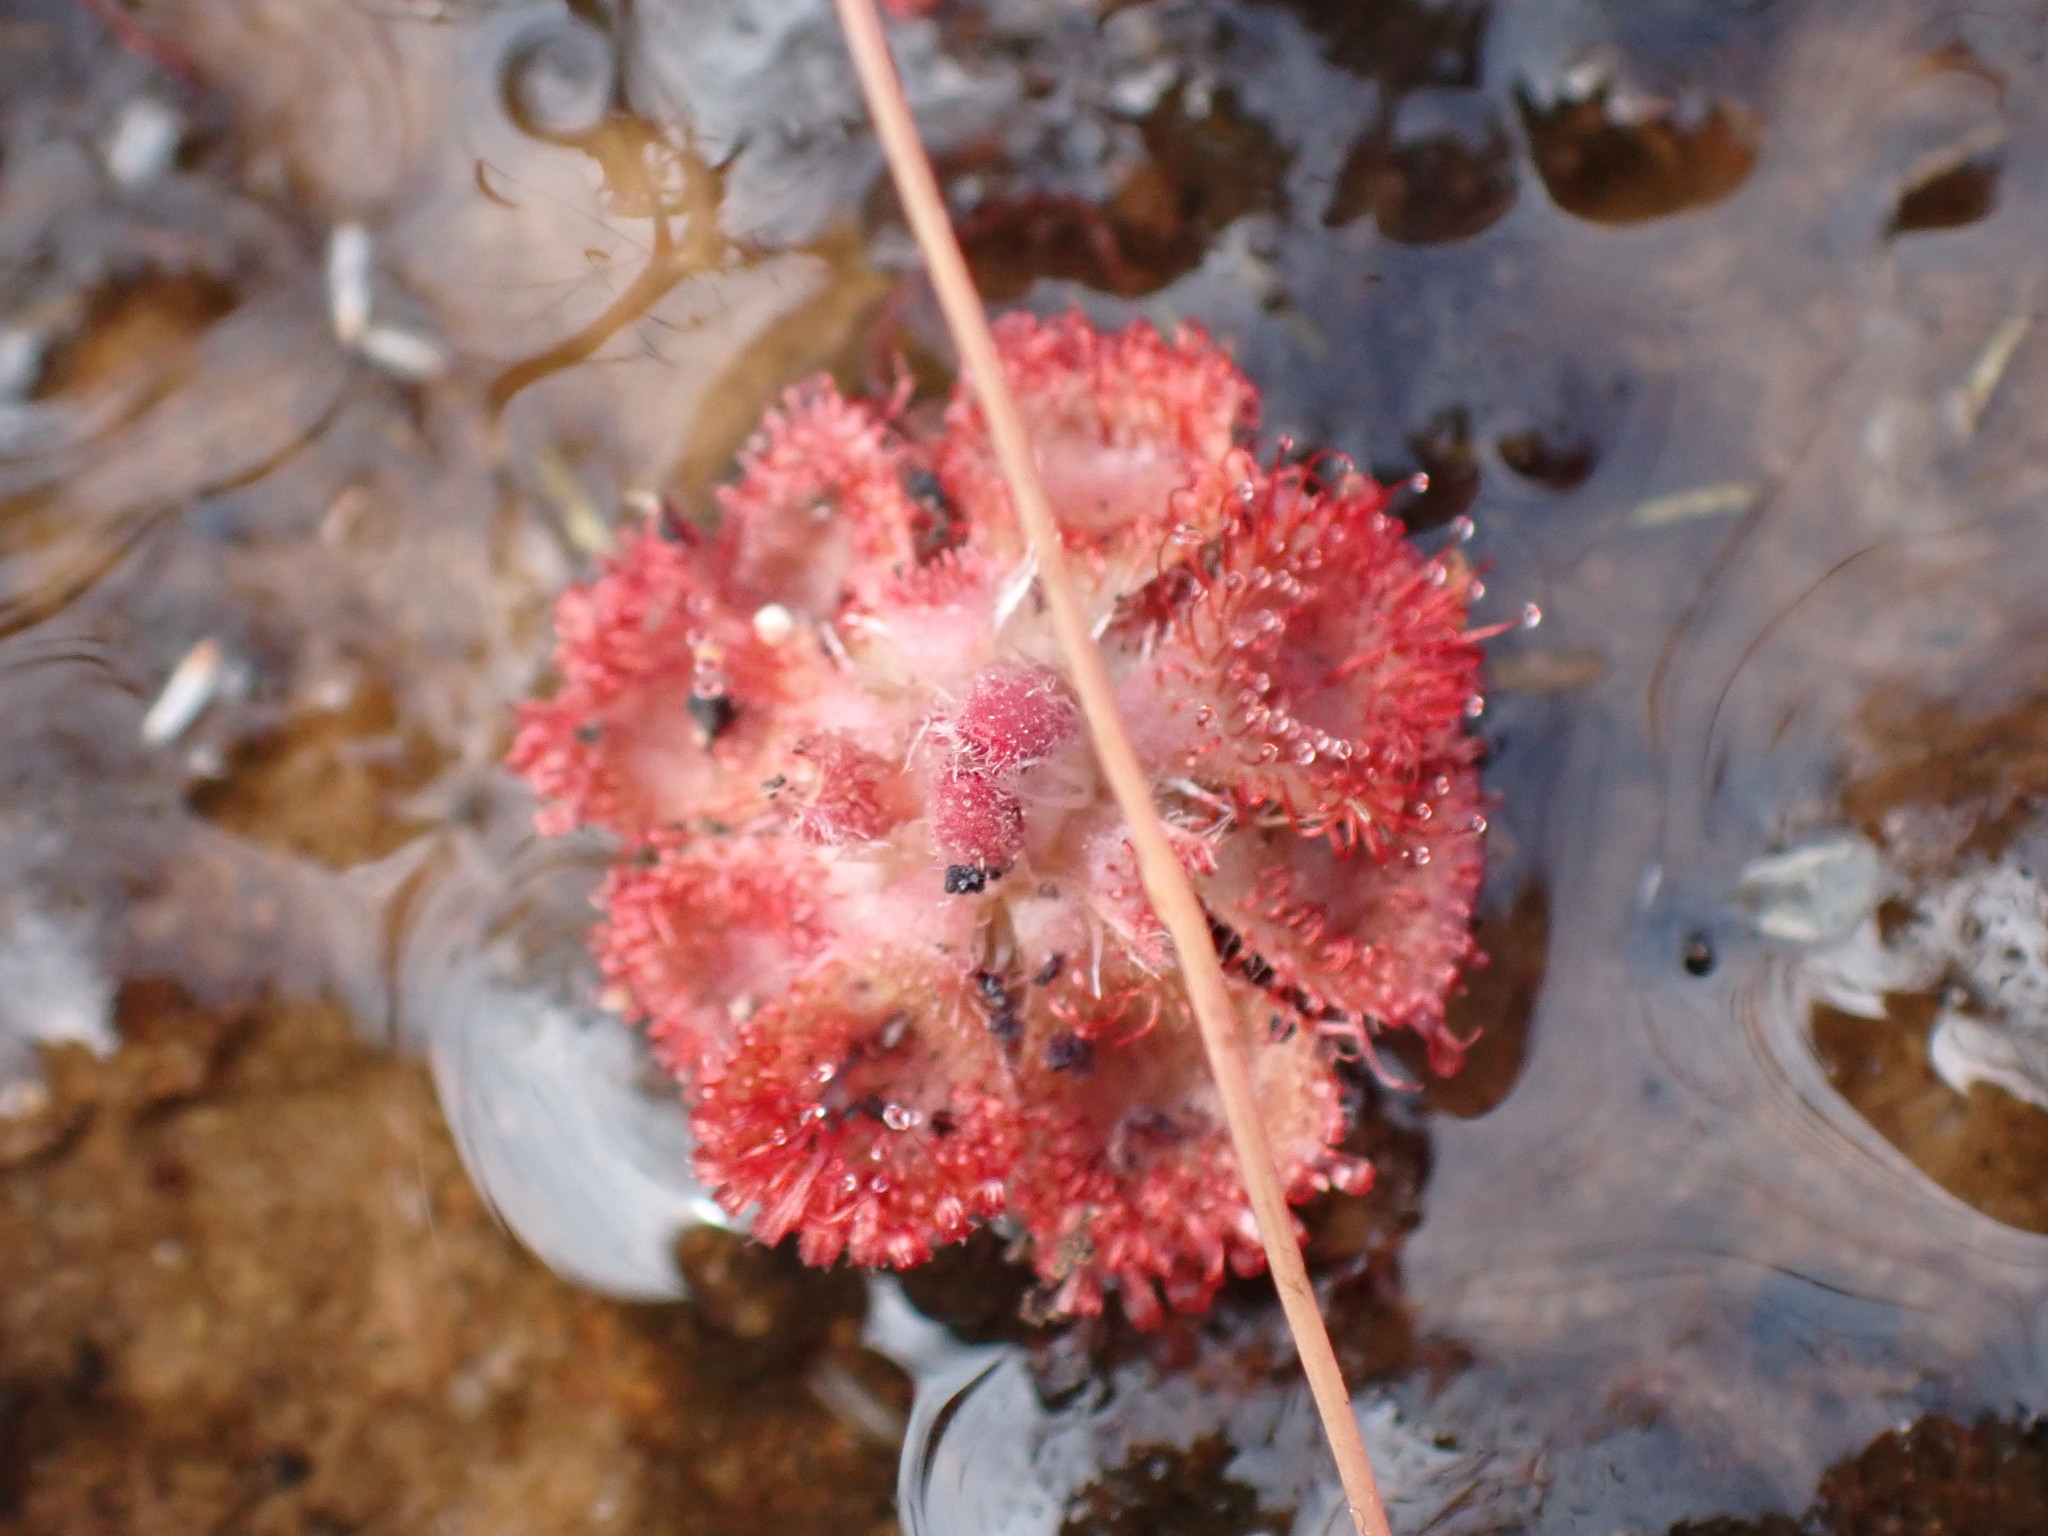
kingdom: Plantae
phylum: Tracheophyta
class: Magnoliopsida
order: Caryophyllales
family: Droseraceae
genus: Drosera
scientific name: Drosera spatulata
